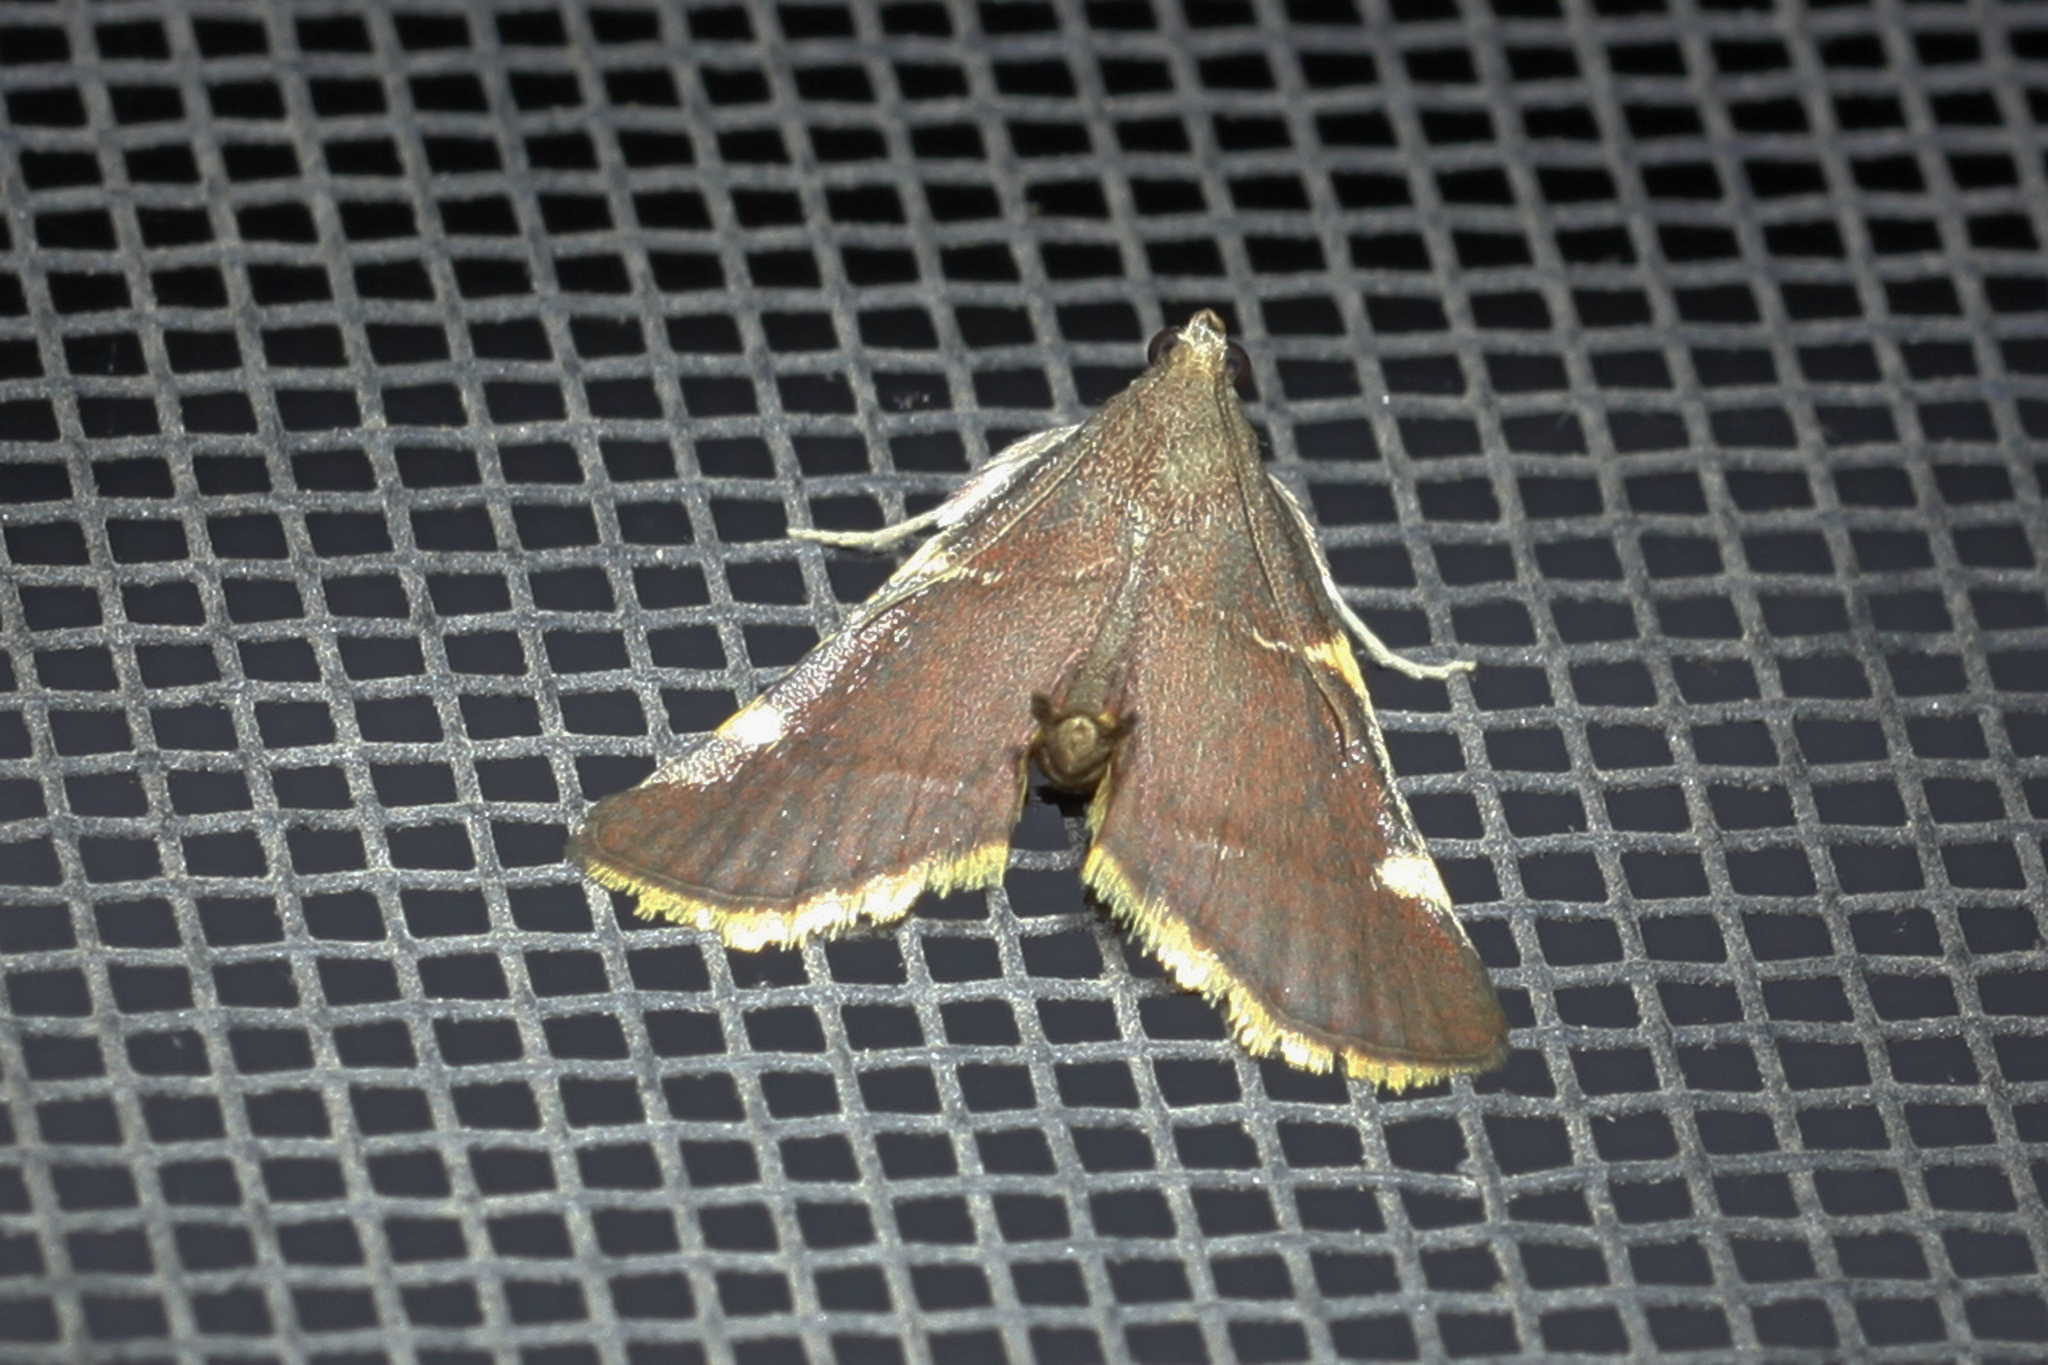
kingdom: Animalia
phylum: Arthropoda
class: Insecta
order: Lepidoptera
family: Pyralidae
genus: Hypsopygia
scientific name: Hypsopygia olinalis
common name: Yellow-fringed dolichomia moth
